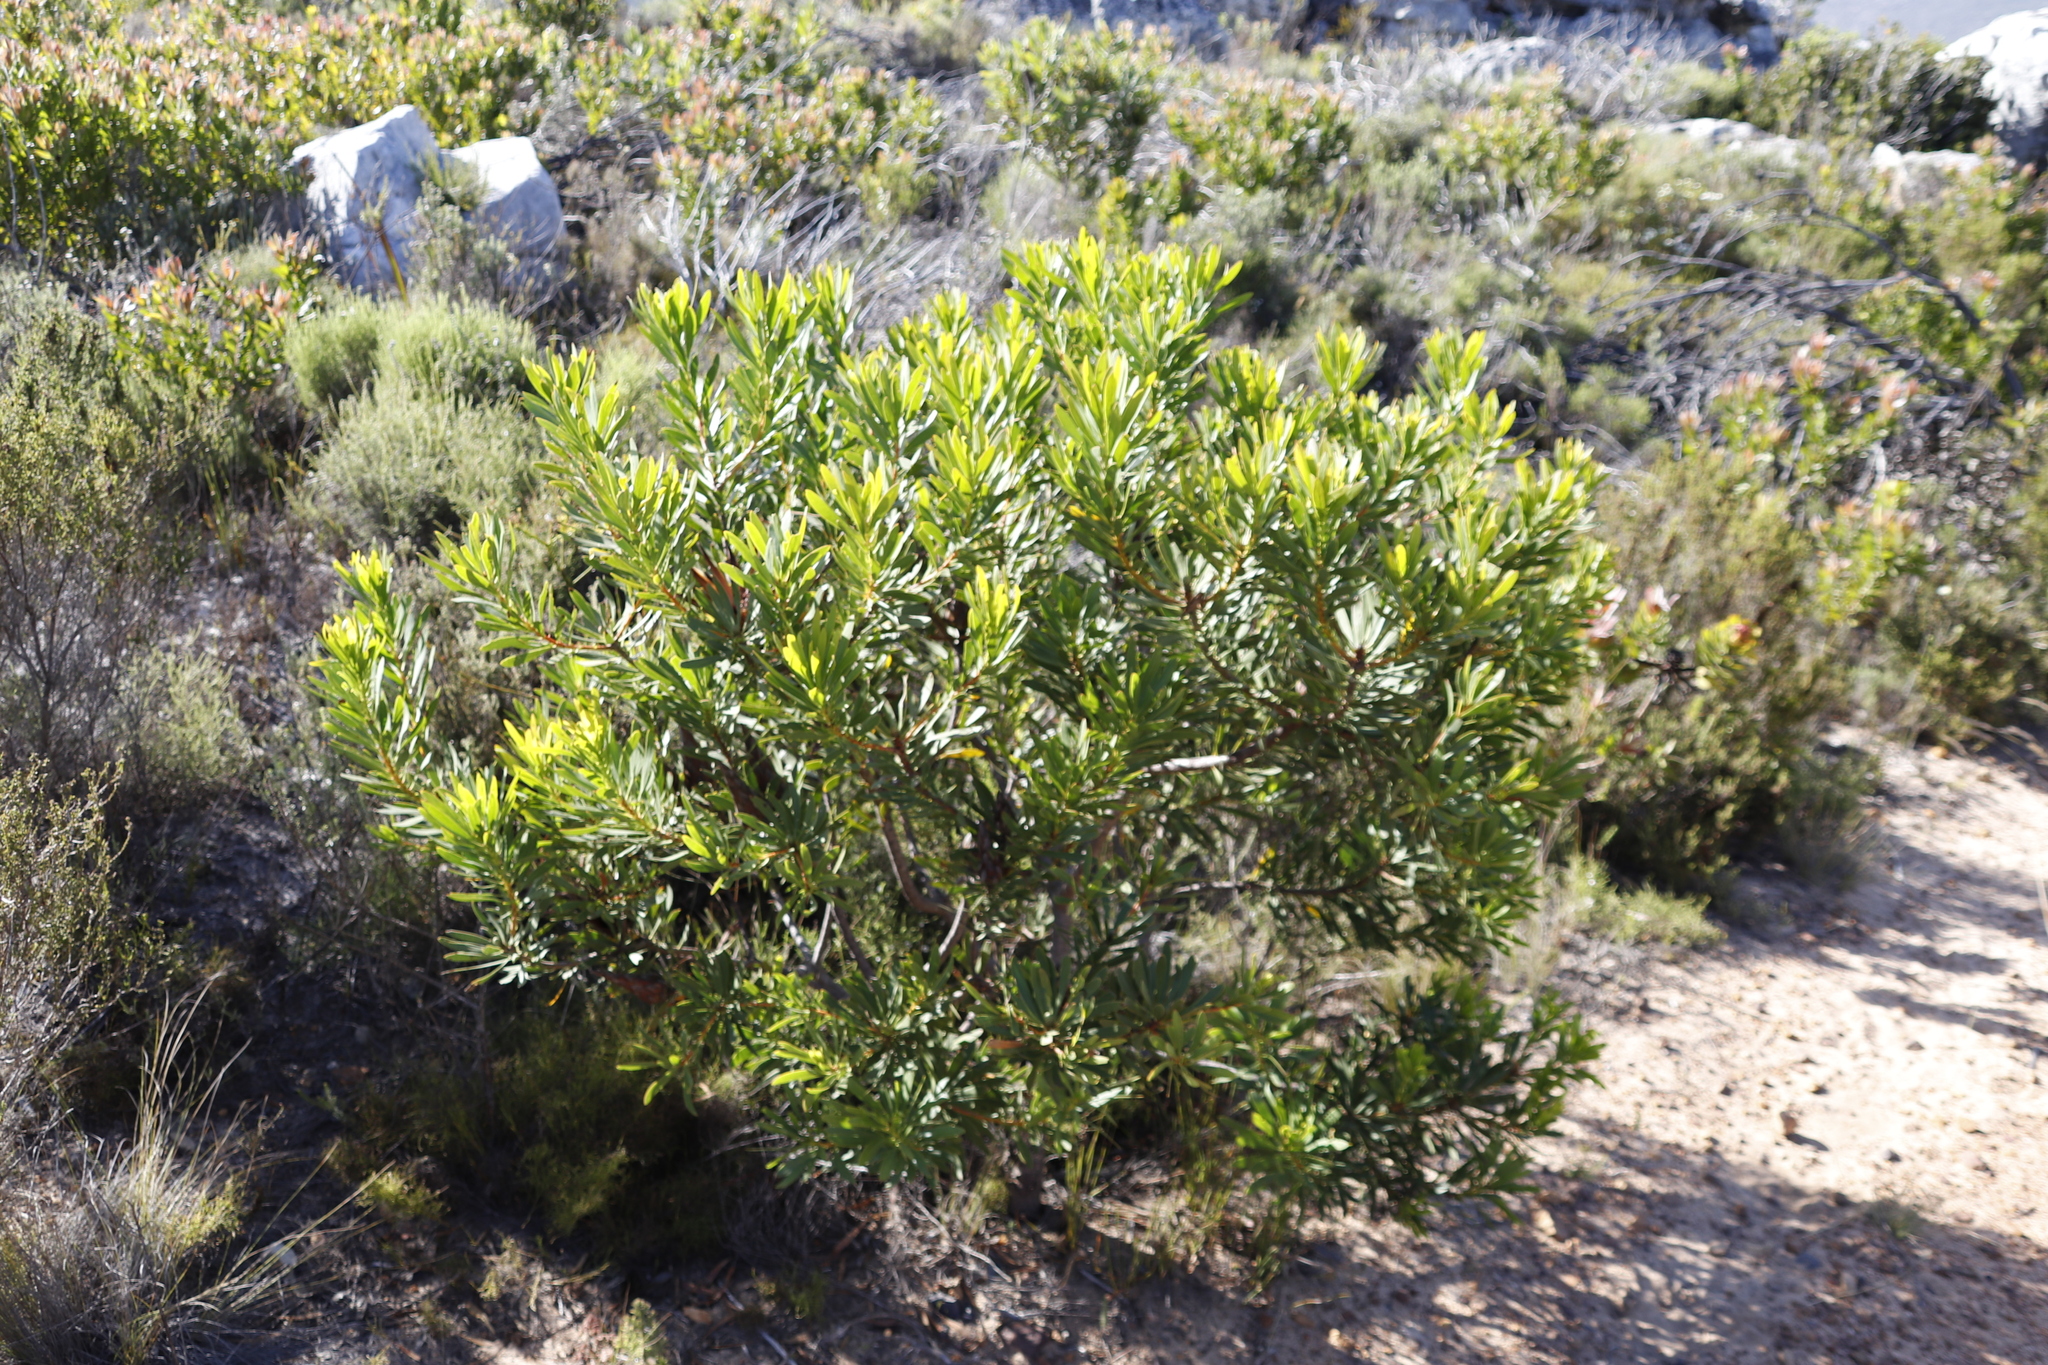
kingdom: Plantae
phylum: Tracheophyta
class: Magnoliopsida
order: Proteales
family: Proteaceae
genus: Protea
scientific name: Protea repens
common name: Sugarbush
